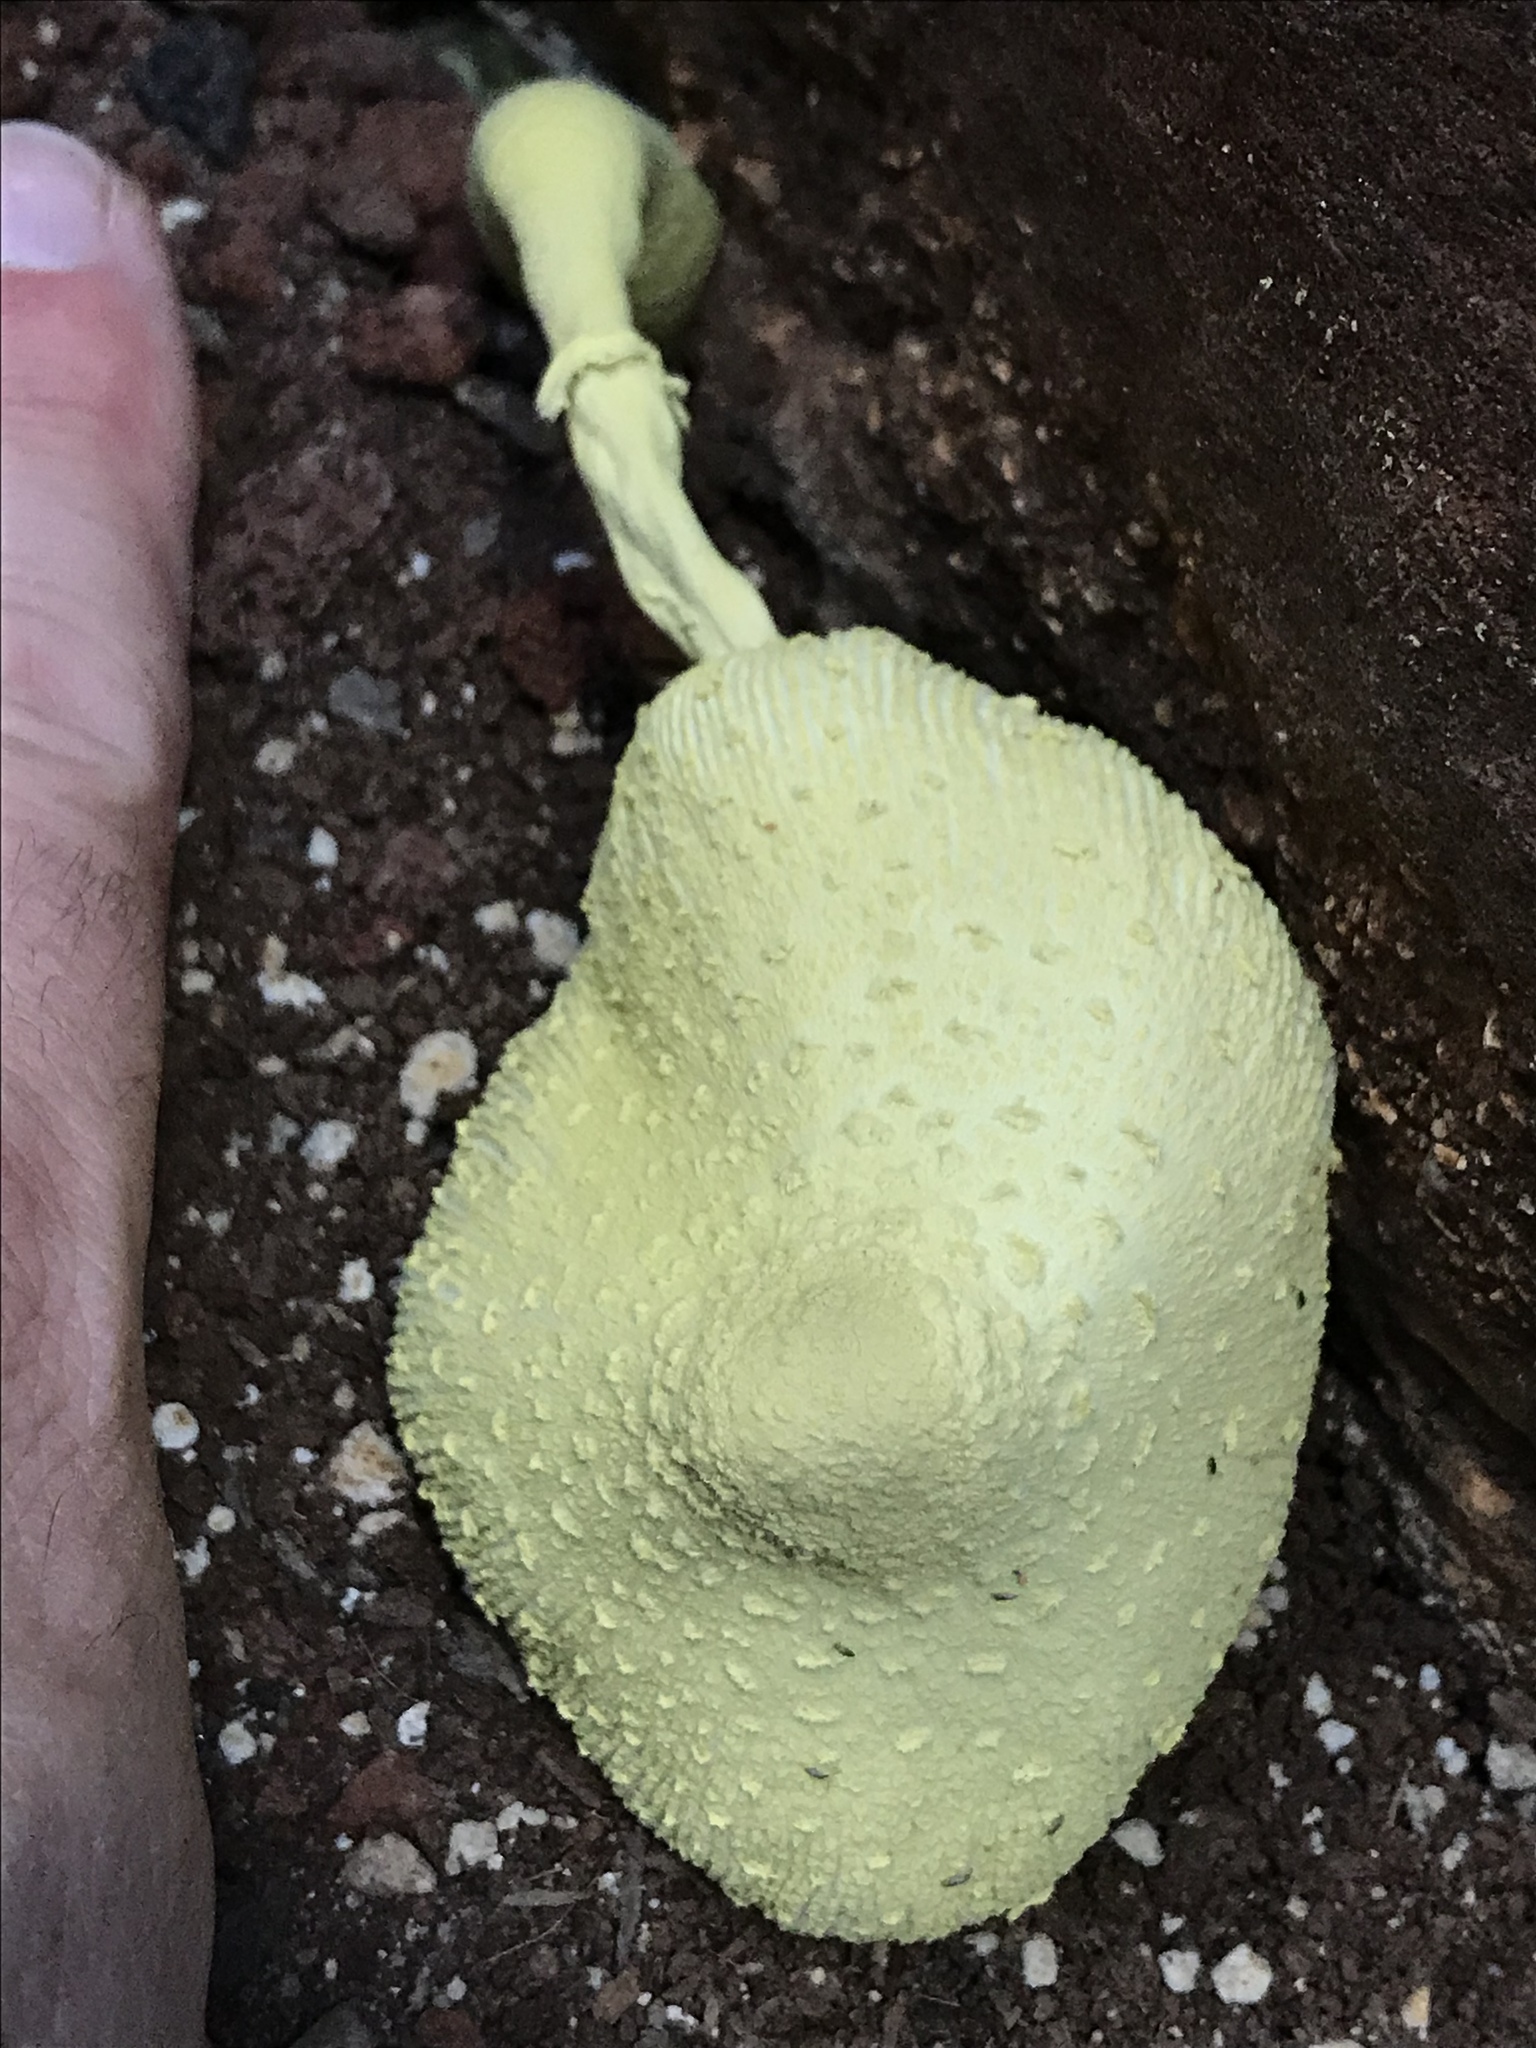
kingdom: Fungi
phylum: Basidiomycota
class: Agaricomycetes
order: Agaricales
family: Agaricaceae
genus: Leucocoprinus
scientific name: Leucocoprinus birnbaumii
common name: Plantpot dapperling
